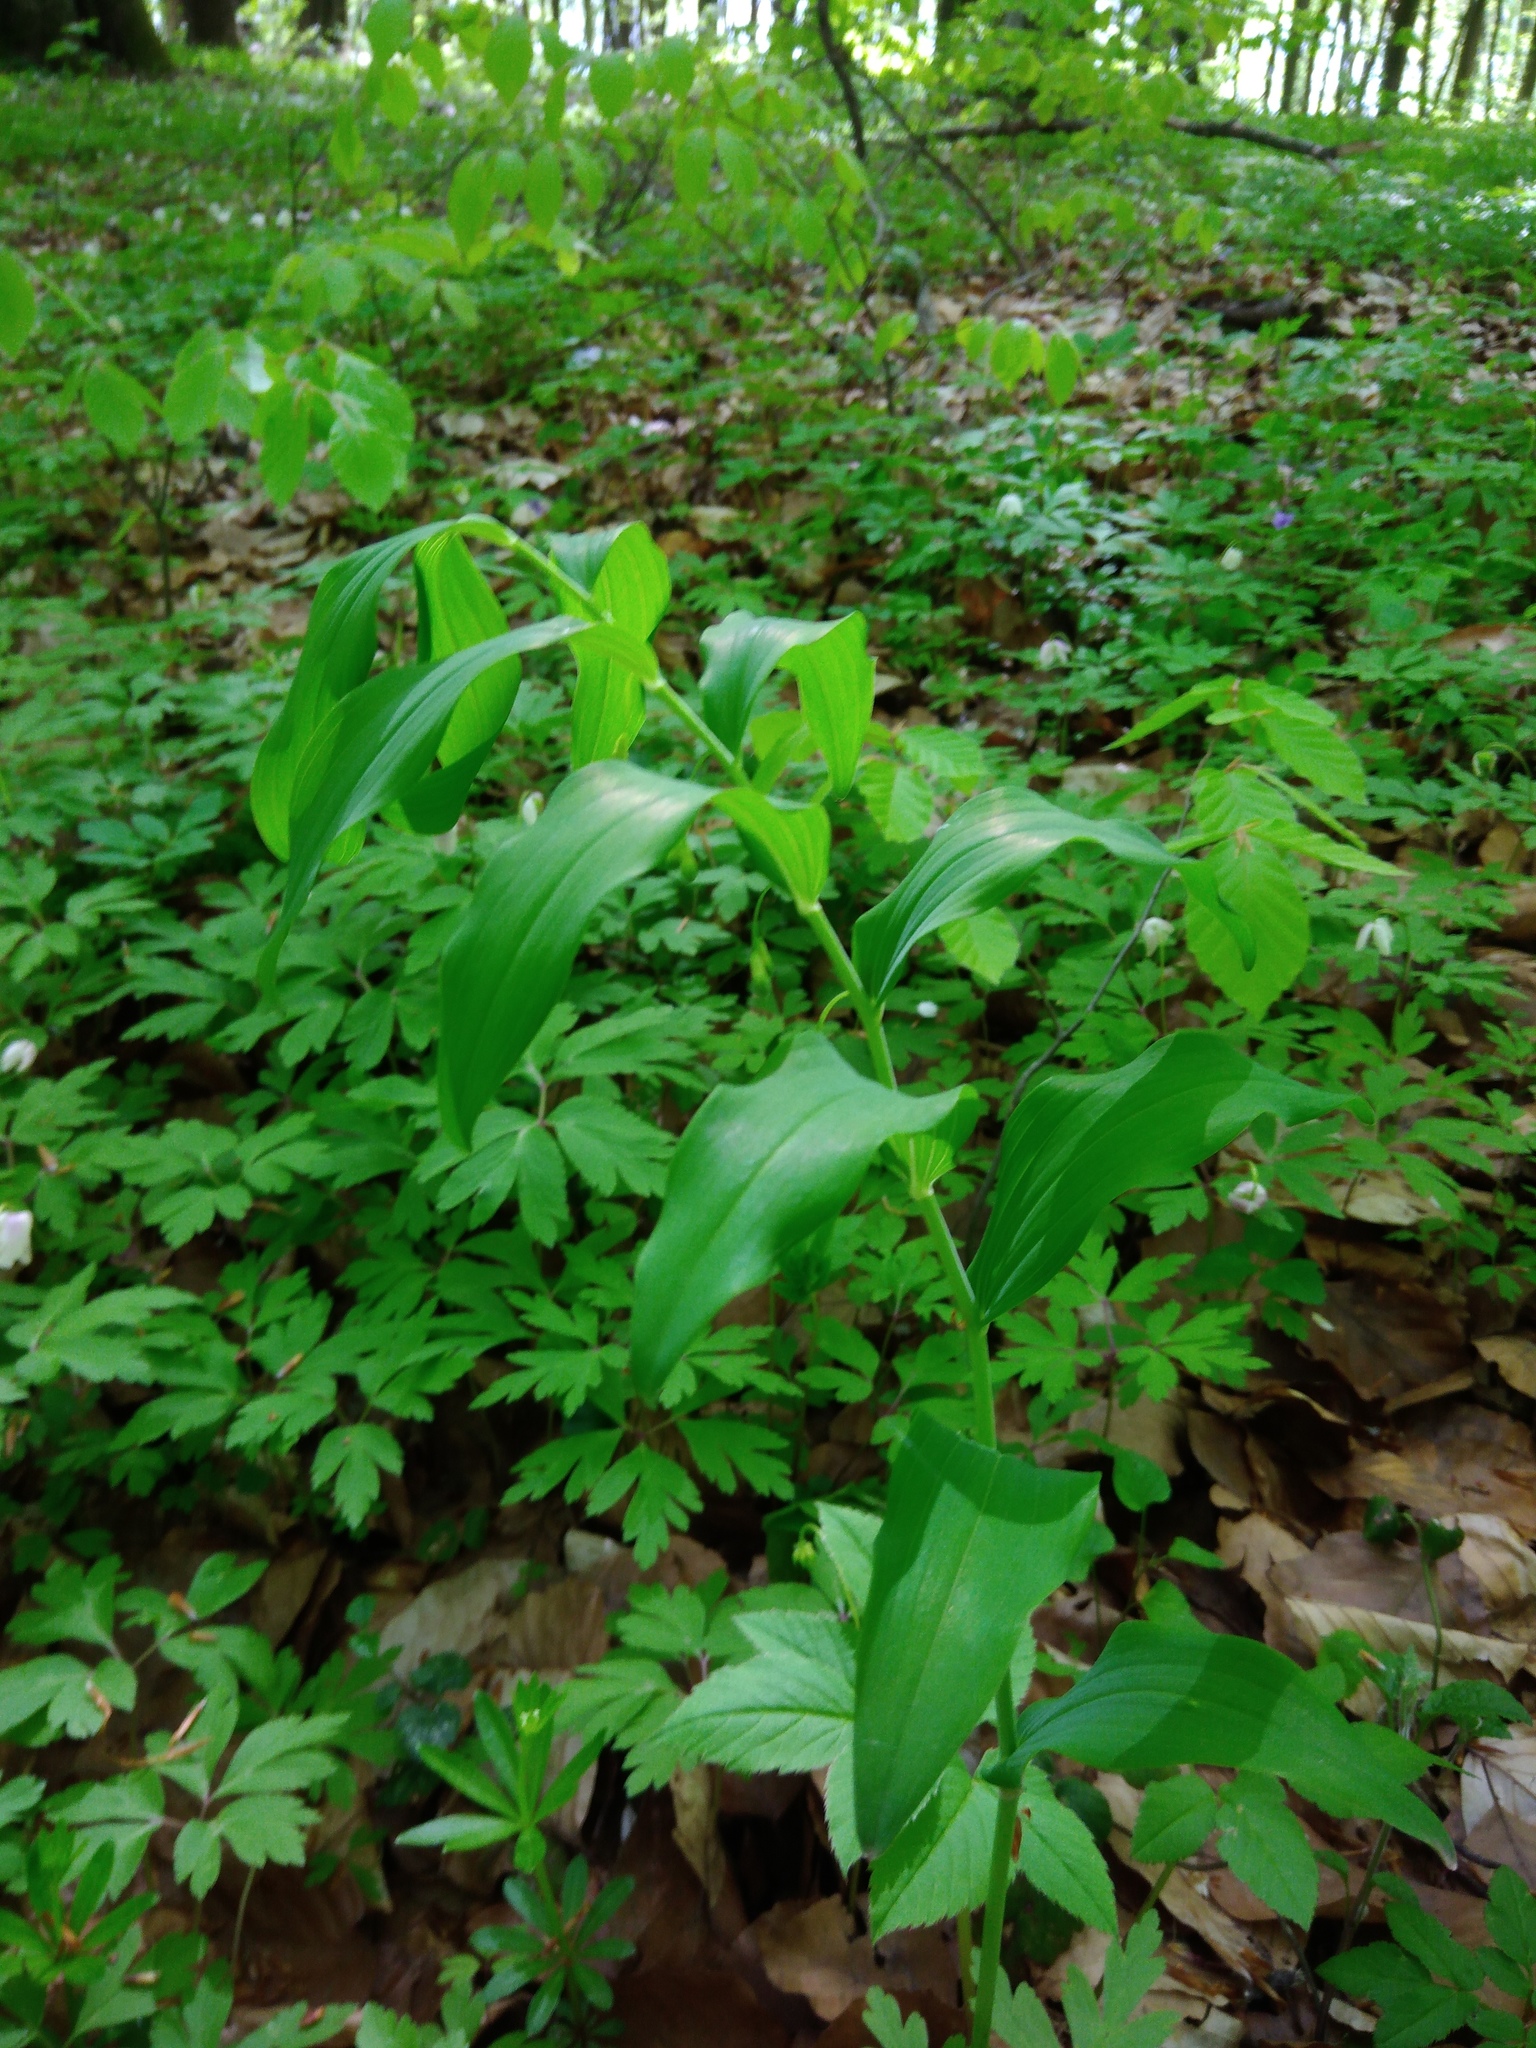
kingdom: Plantae
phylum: Tracheophyta
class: Liliopsida
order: Asparagales
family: Asparagaceae
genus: Polygonatum
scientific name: Polygonatum multiflorum
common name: Solomon's-seal
